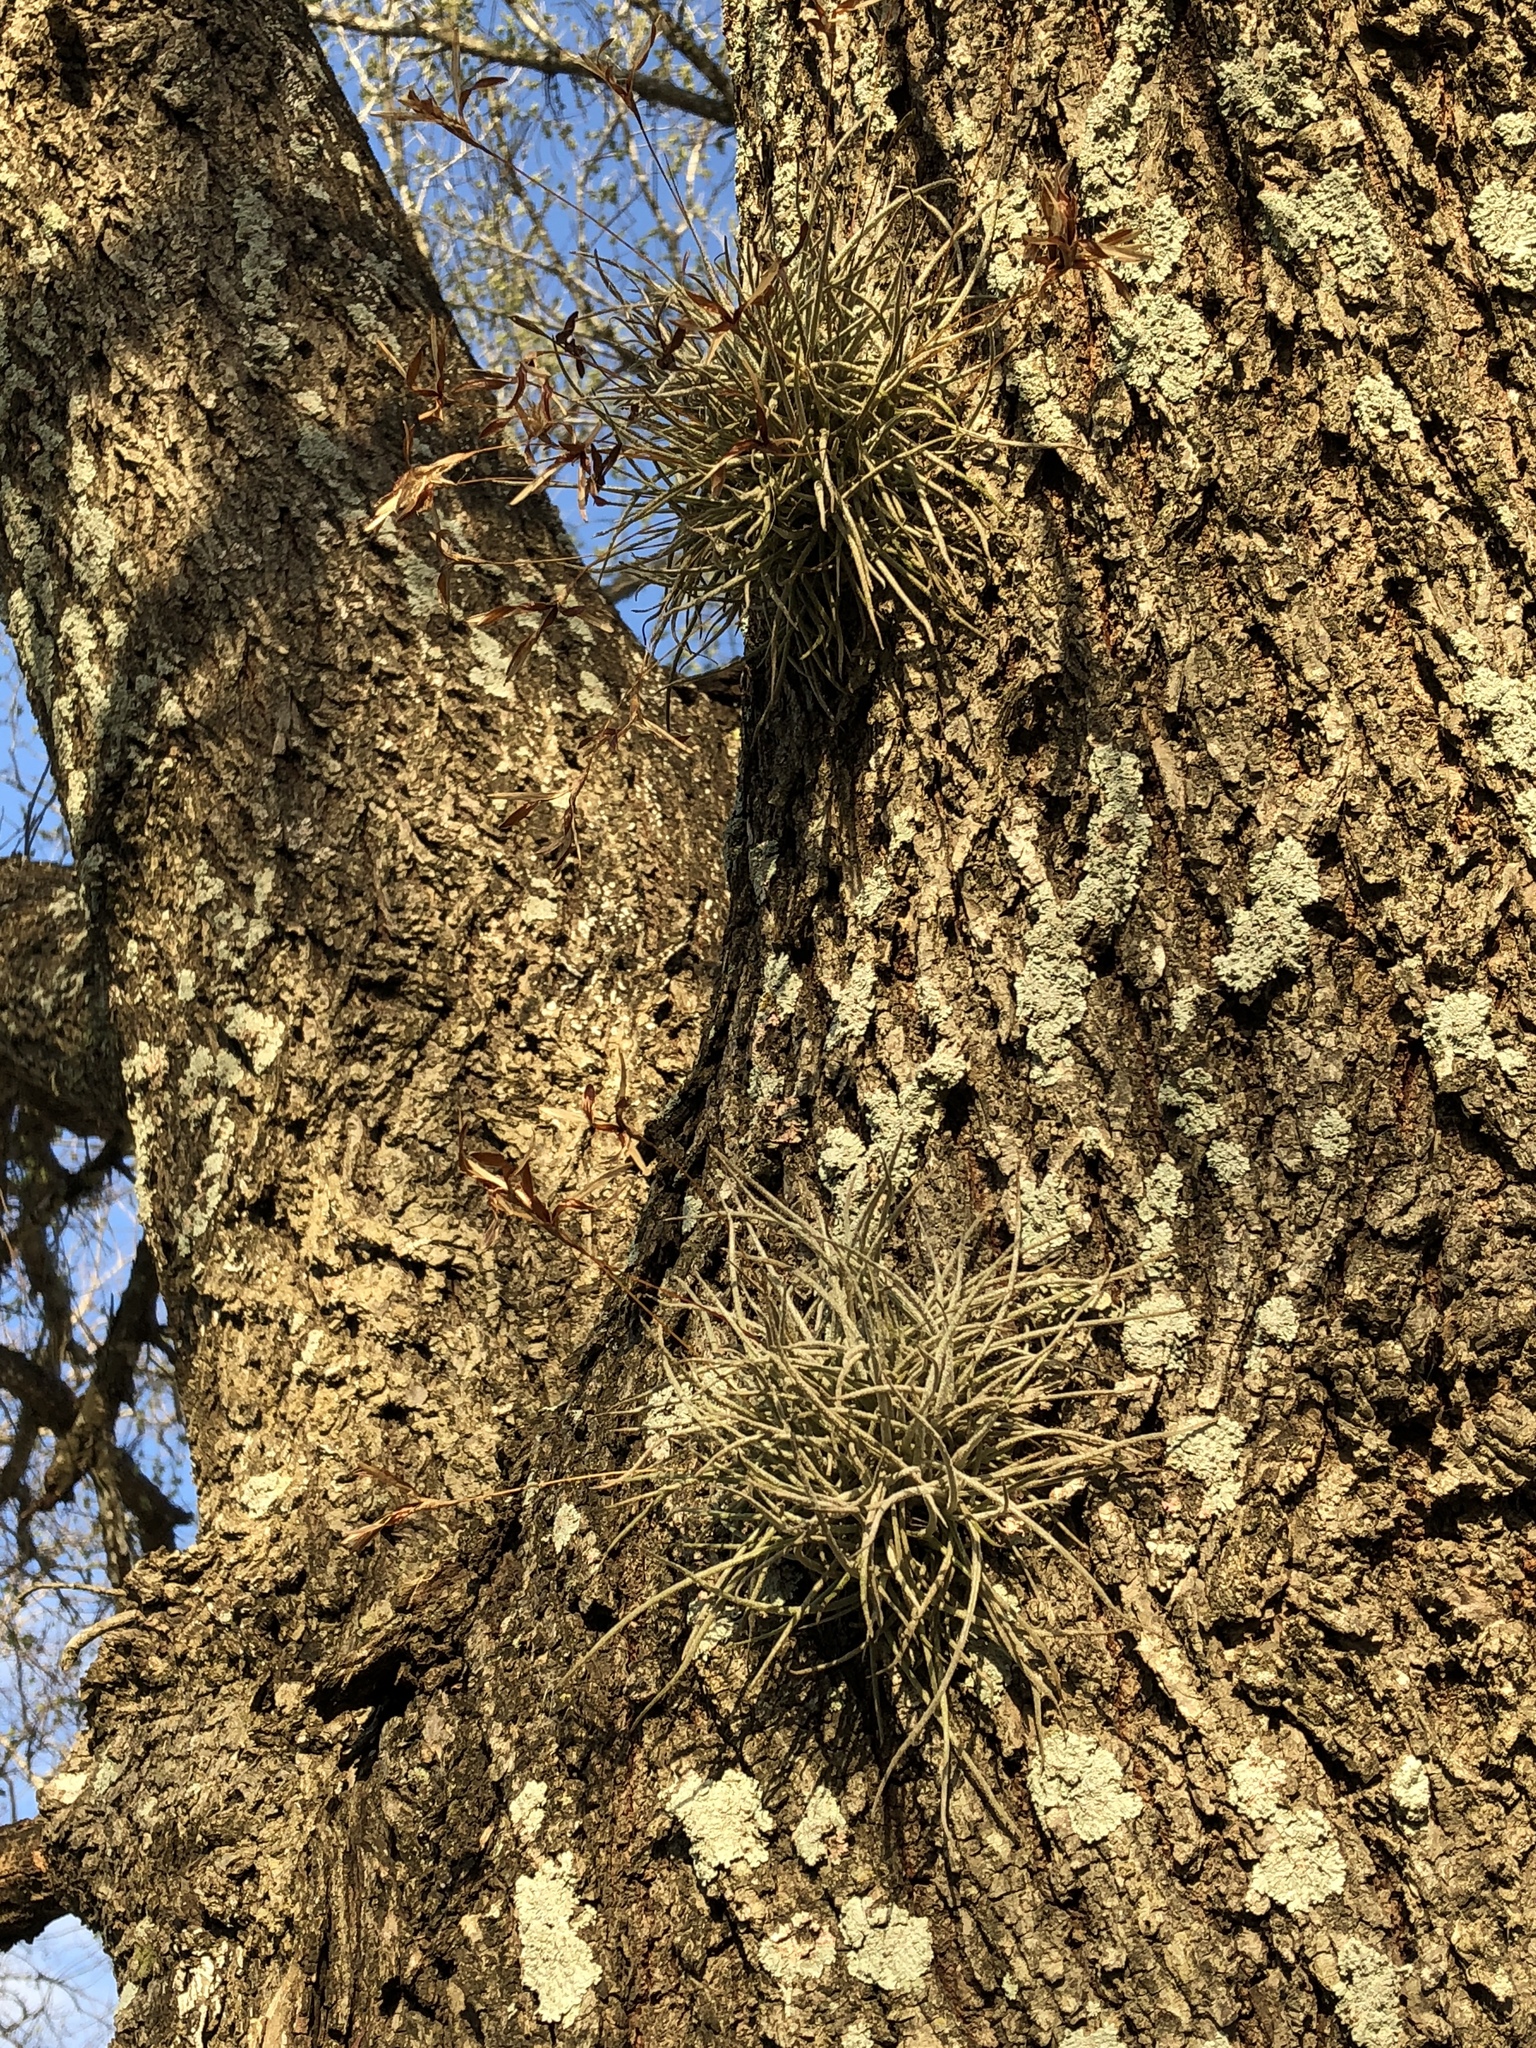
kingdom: Plantae
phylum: Tracheophyta
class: Liliopsida
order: Poales
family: Bromeliaceae
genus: Tillandsia
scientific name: Tillandsia recurvata
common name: Small ballmoss
